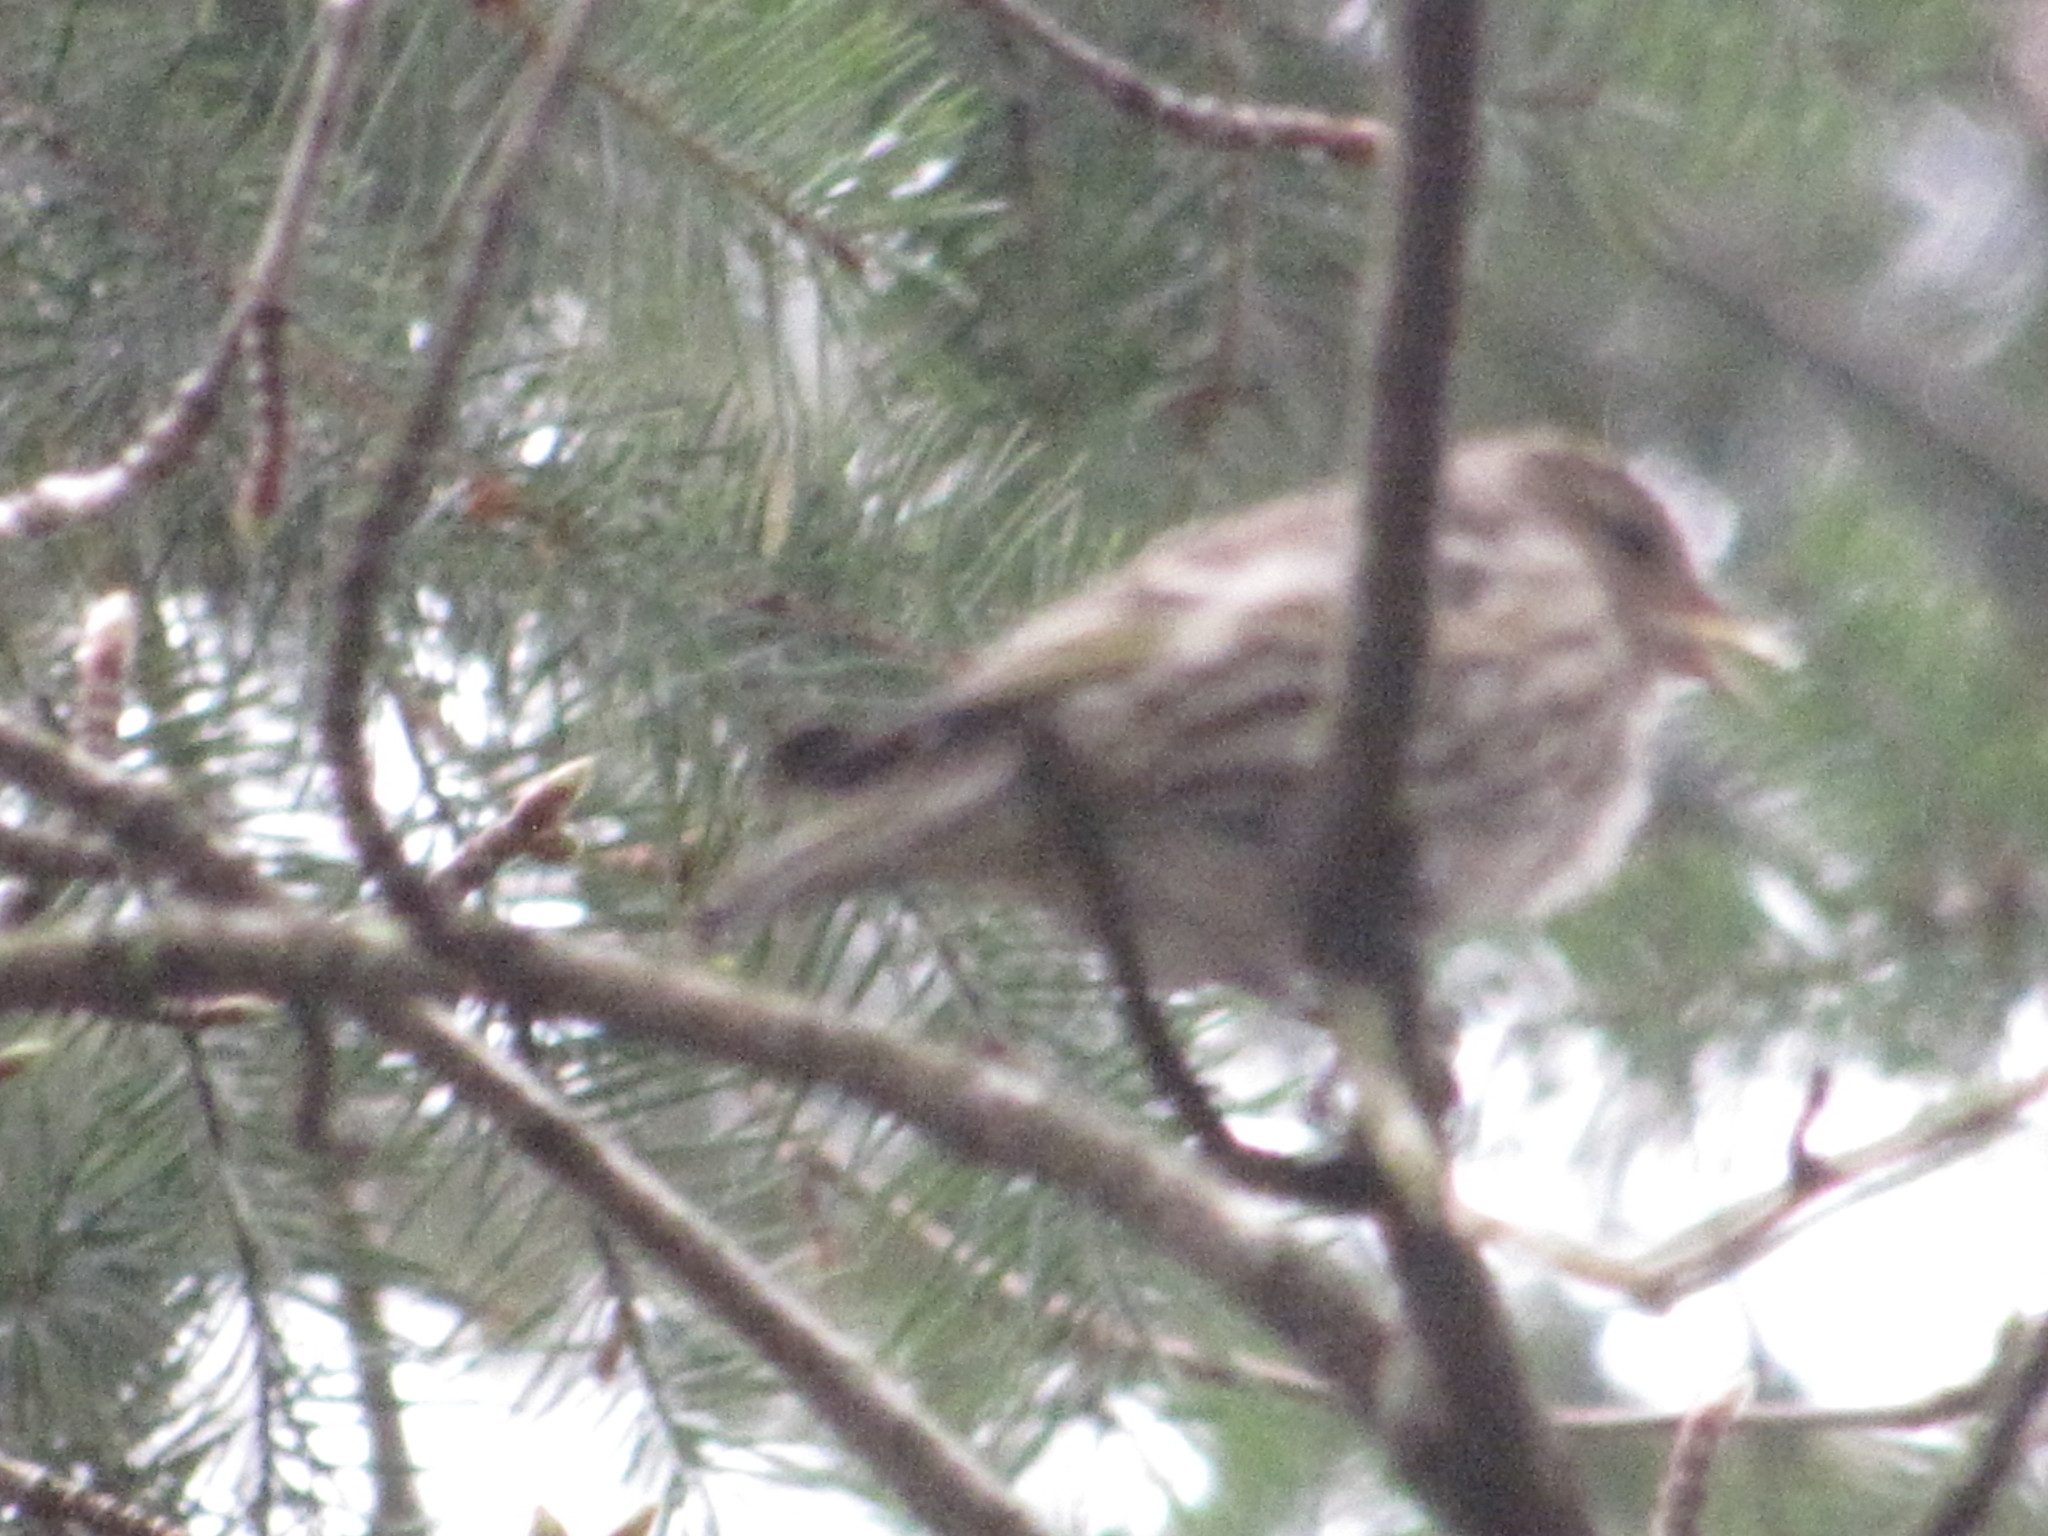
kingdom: Animalia
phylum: Chordata
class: Aves
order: Passeriformes
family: Fringillidae
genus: Spinus
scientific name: Spinus pinus
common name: Pine siskin
